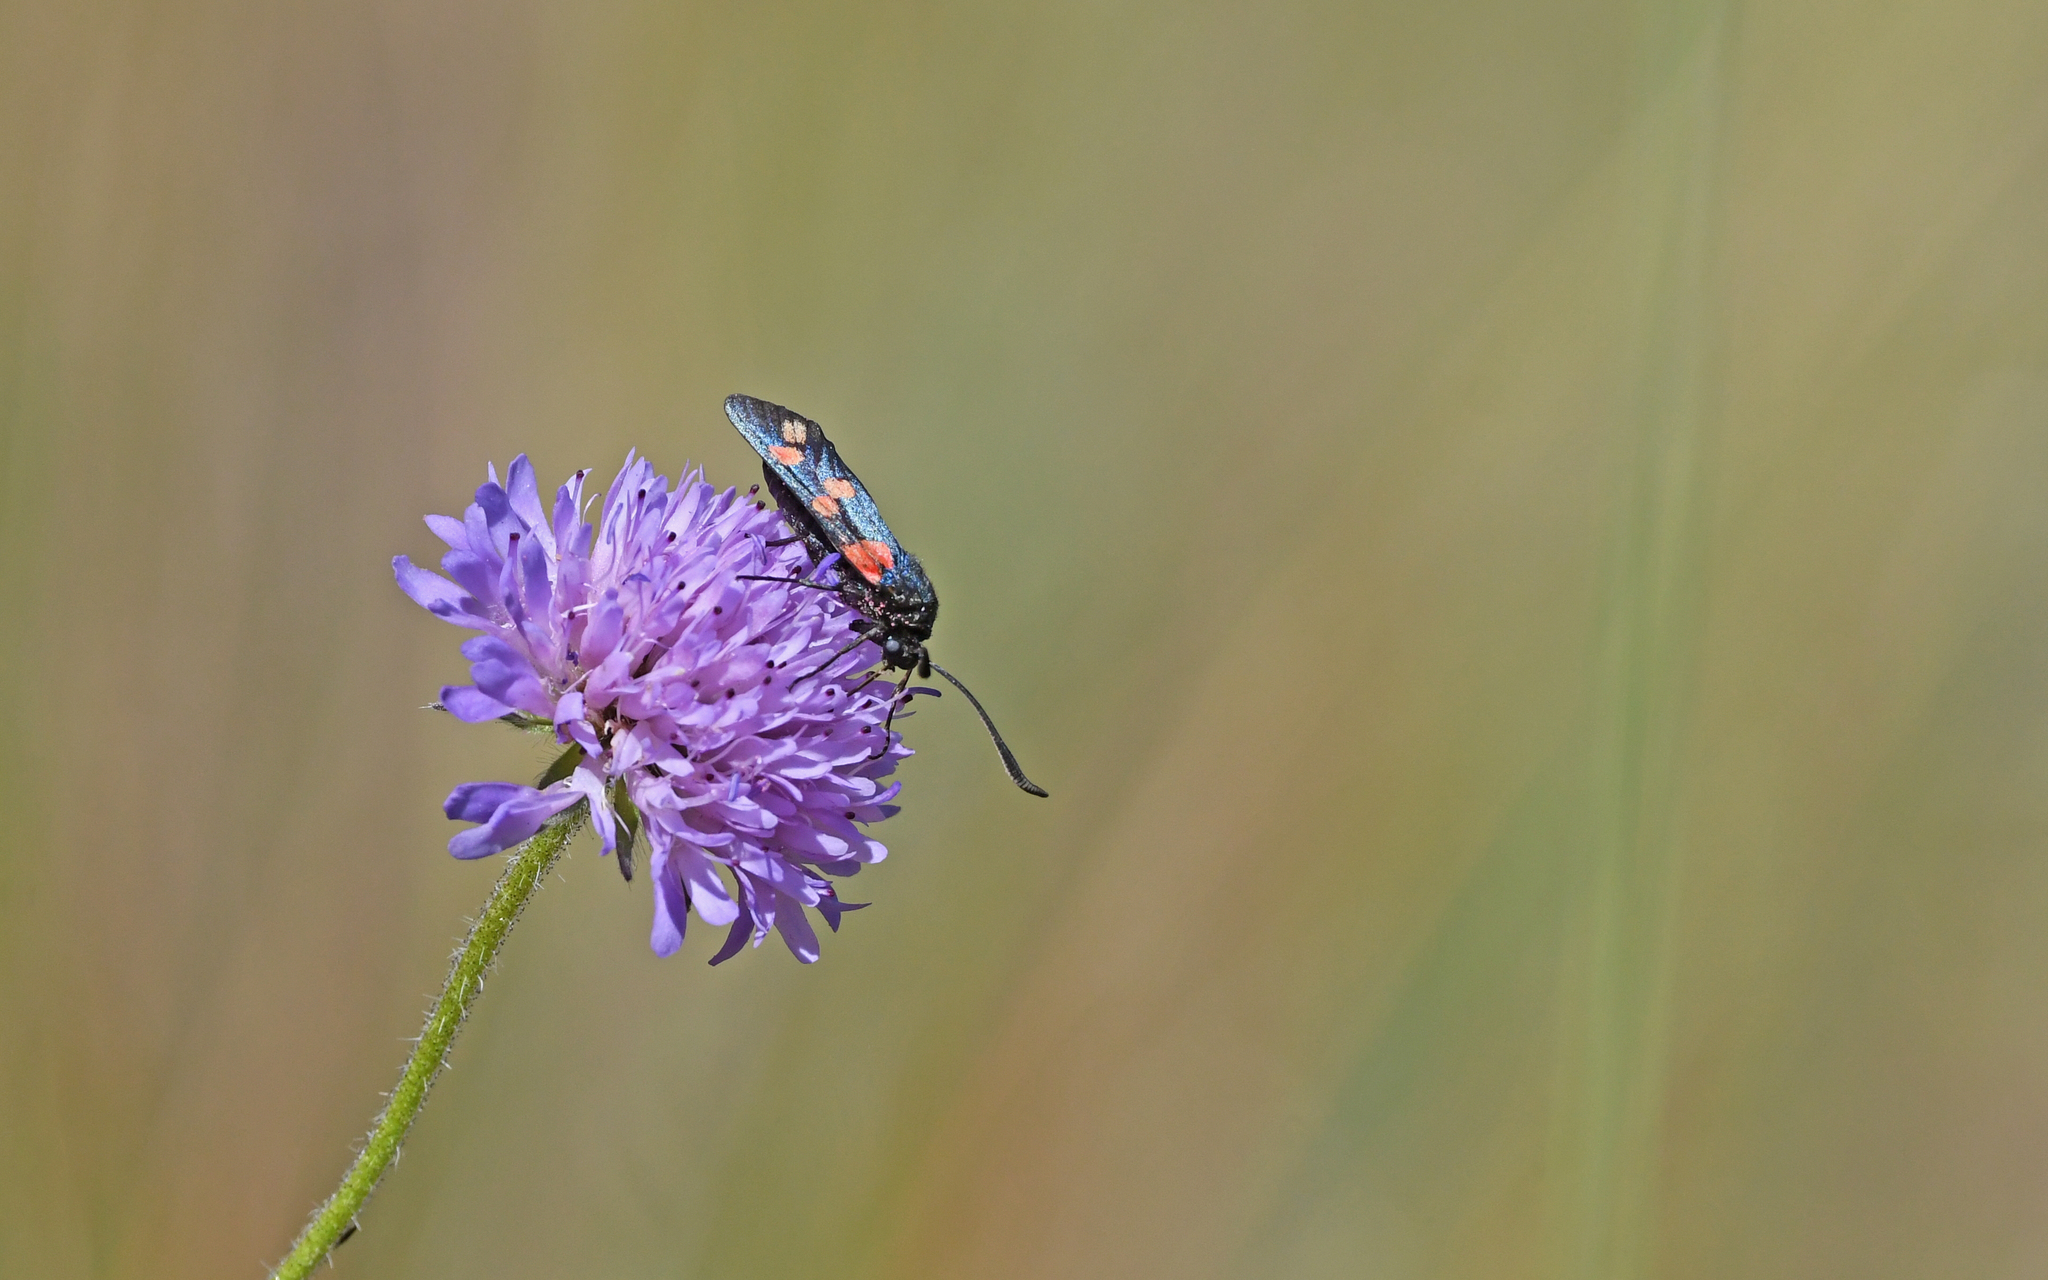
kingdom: Animalia
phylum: Arthropoda
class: Insecta
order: Lepidoptera
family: Zygaenidae
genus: Zygaena
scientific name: Zygaena filipendulae
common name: Six-spot burnet
